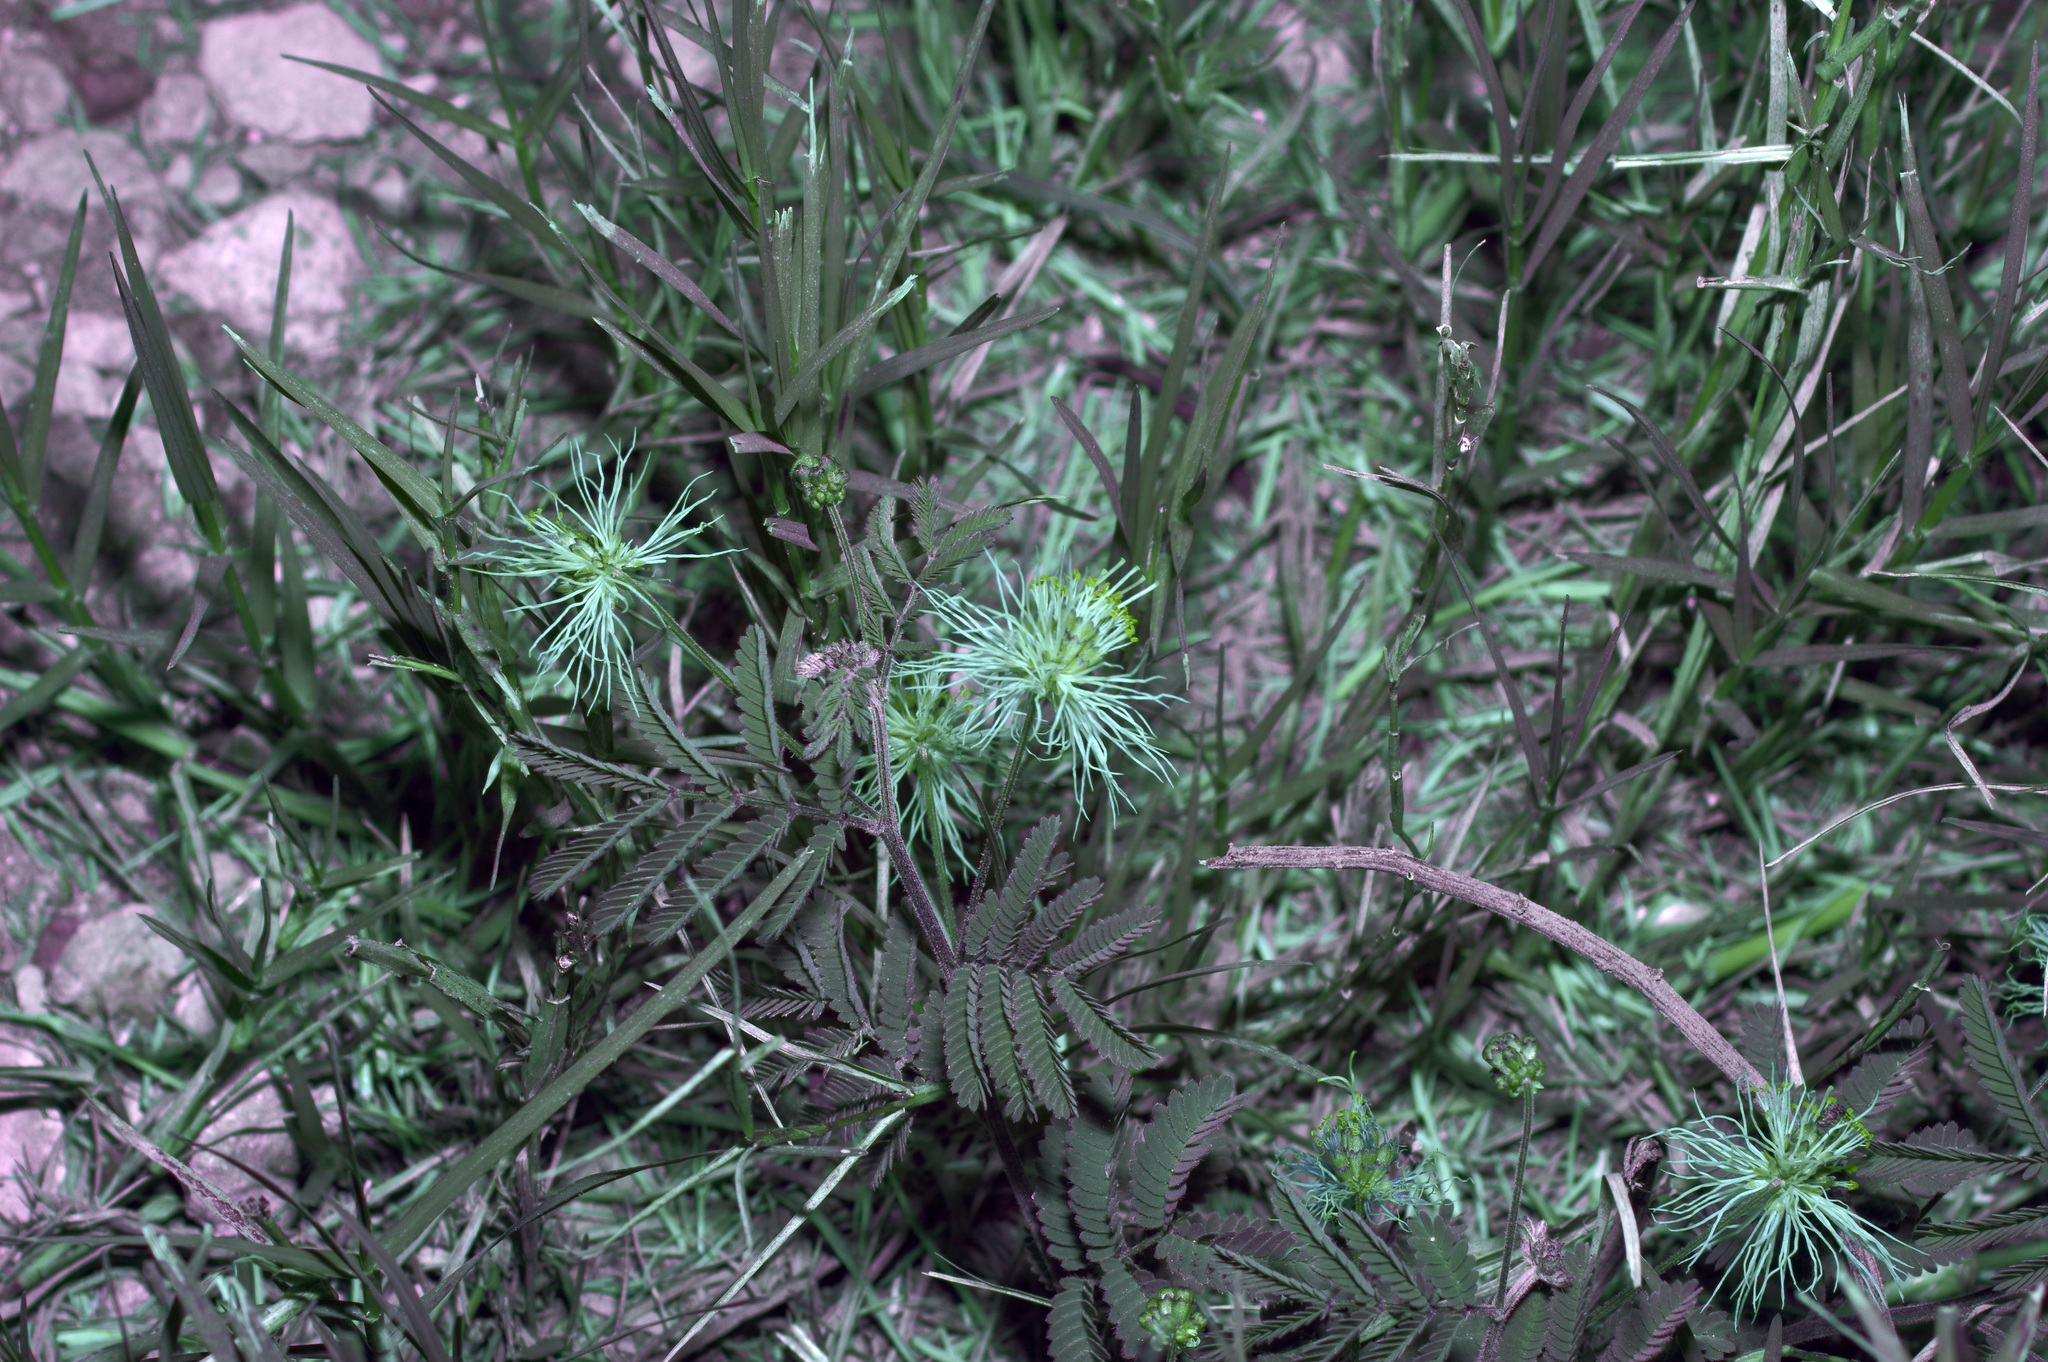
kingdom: Plantae
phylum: Tracheophyta
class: Magnoliopsida
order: Fabales
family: Fabaceae
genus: Desmanthus
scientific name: Desmanthus velutinus
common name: Velvet bundle-flower
